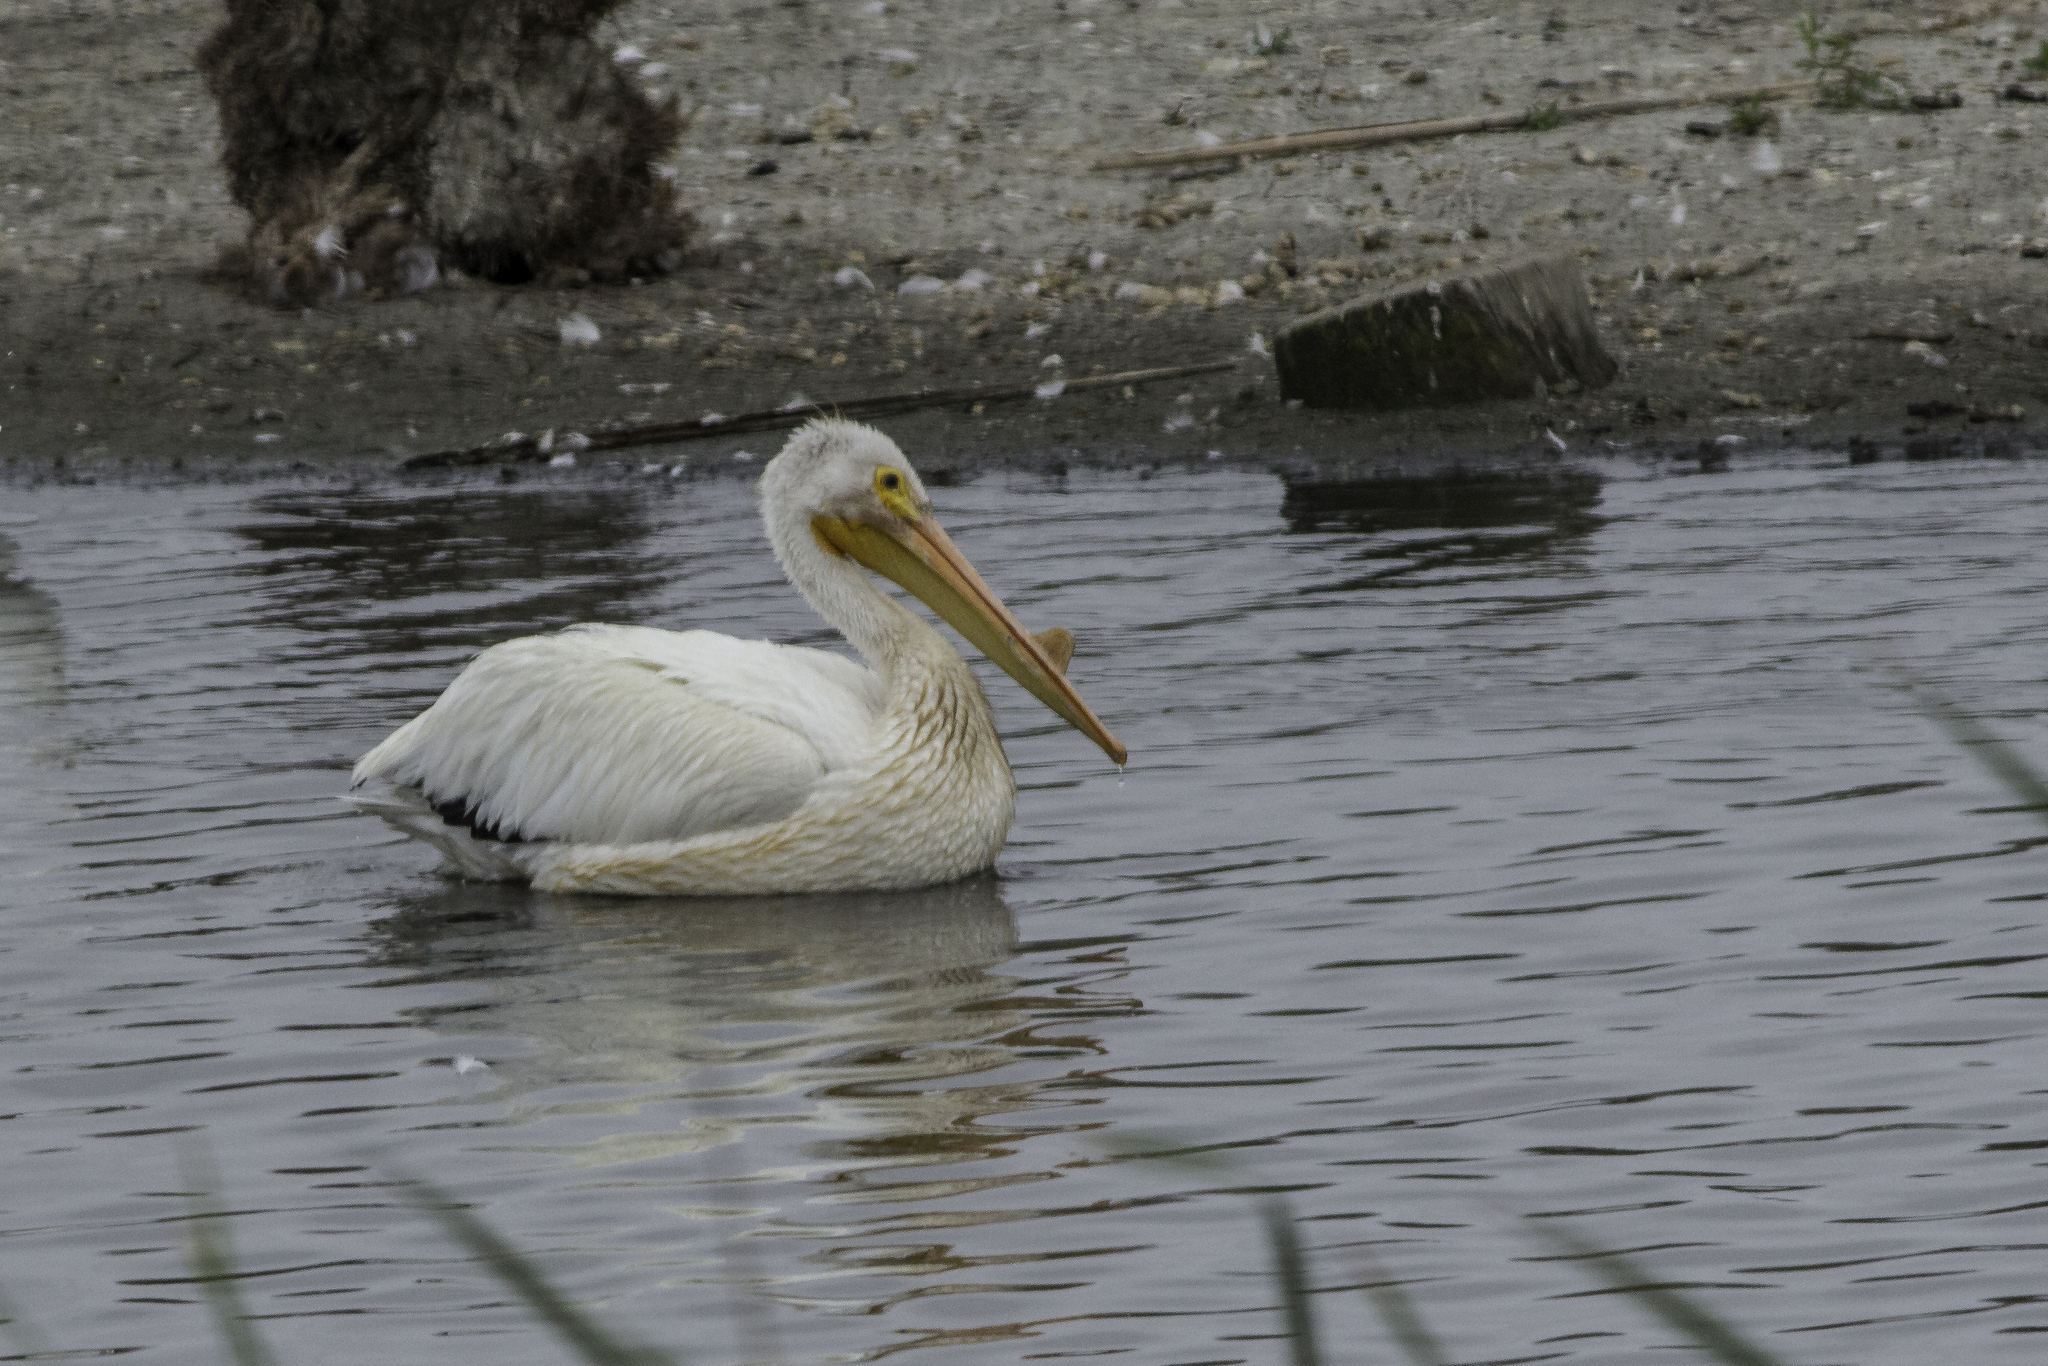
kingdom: Animalia
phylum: Chordata
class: Aves
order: Pelecaniformes
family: Pelecanidae
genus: Pelecanus
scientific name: Pelecanus erythrorhynchos
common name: American white pelican
